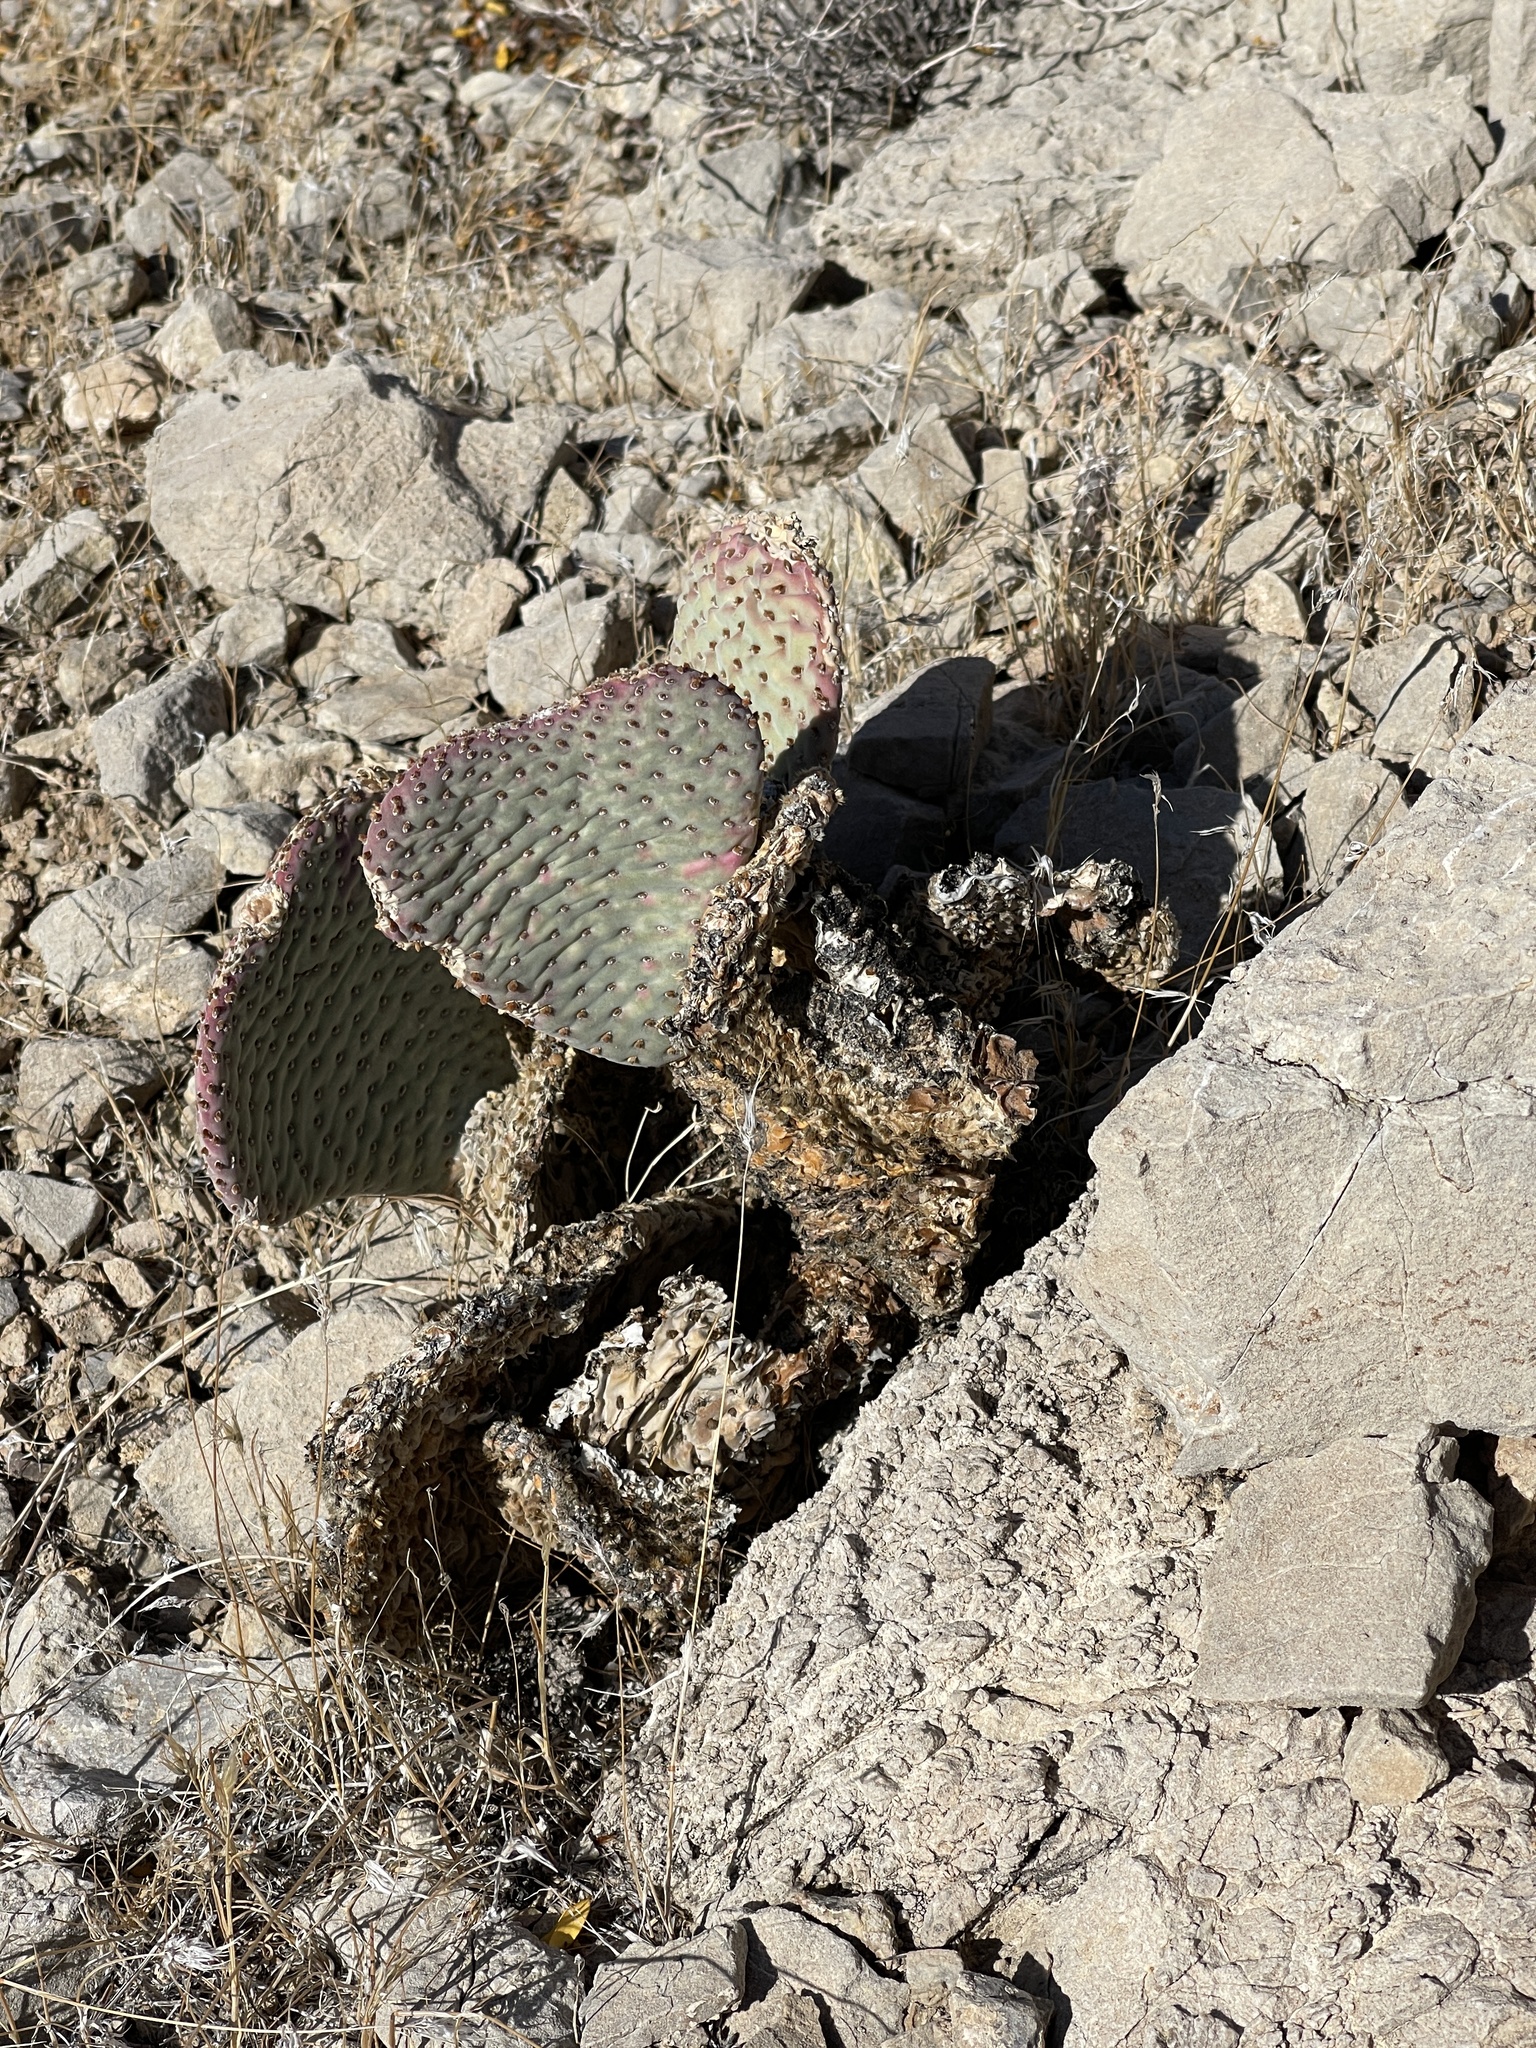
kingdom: Plantae
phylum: Tracheophyta
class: Magnoliopsida
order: Caryophyllales
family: Cactaceae
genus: Opuntia
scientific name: Opuntia basilaris
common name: Beavertail prickly-pear
